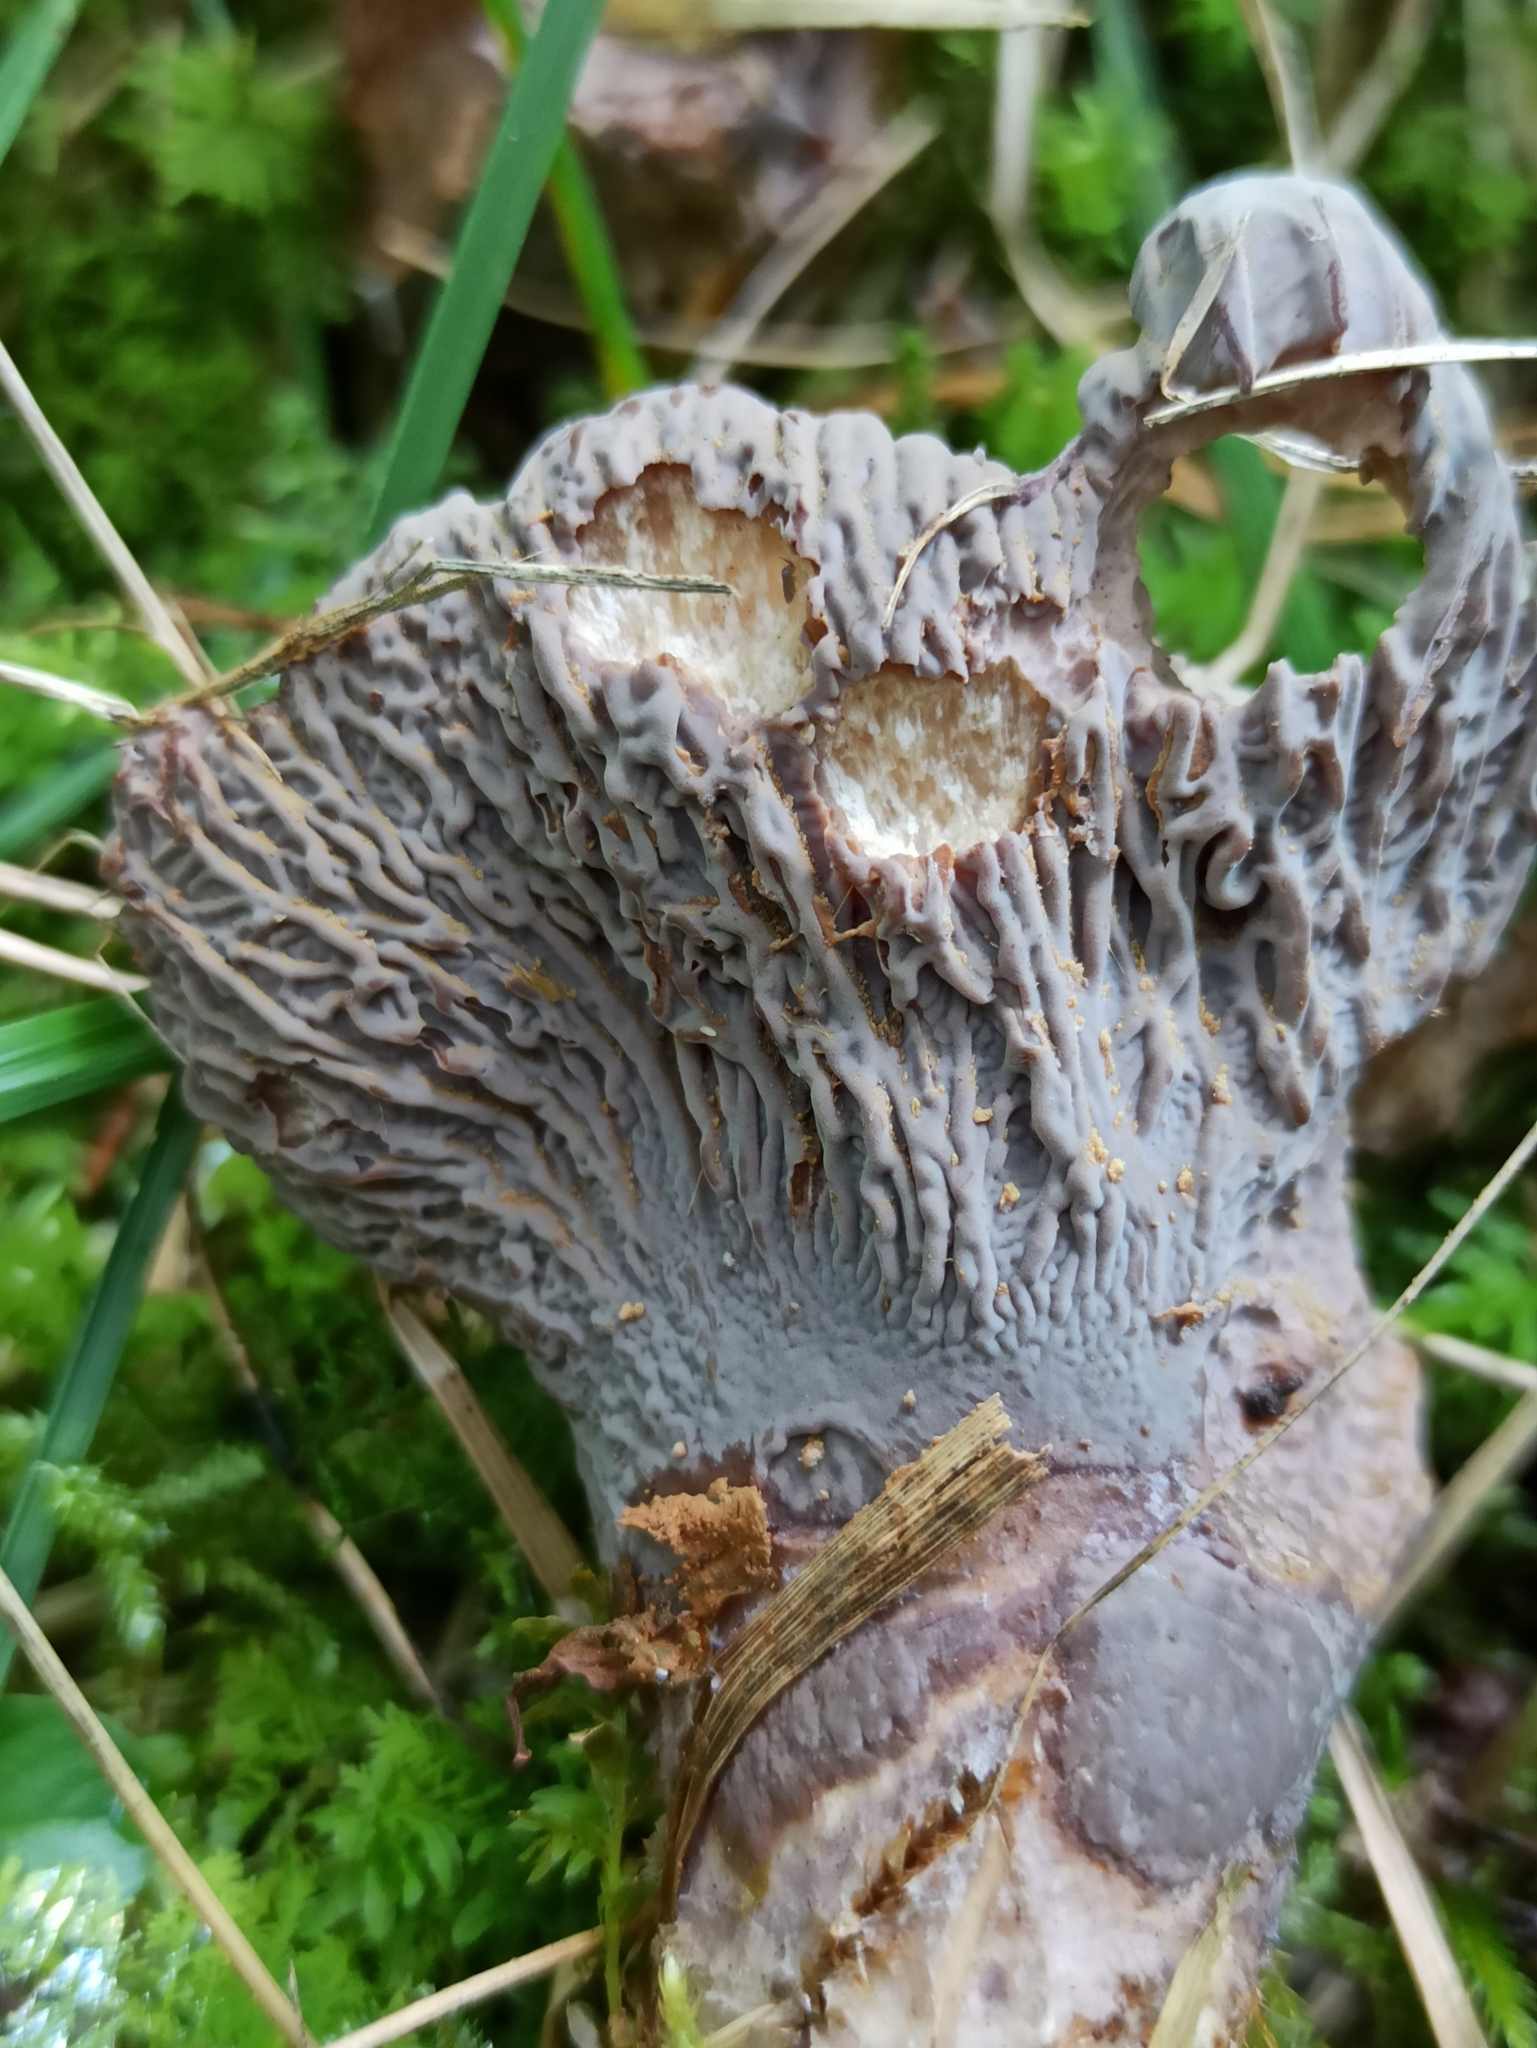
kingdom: Fungi
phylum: Basidiomycota
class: Agaricomycetes
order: Gomphales
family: Gomphaceae
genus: Gomphus
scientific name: Gomphus clavatus
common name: Pig's ear
